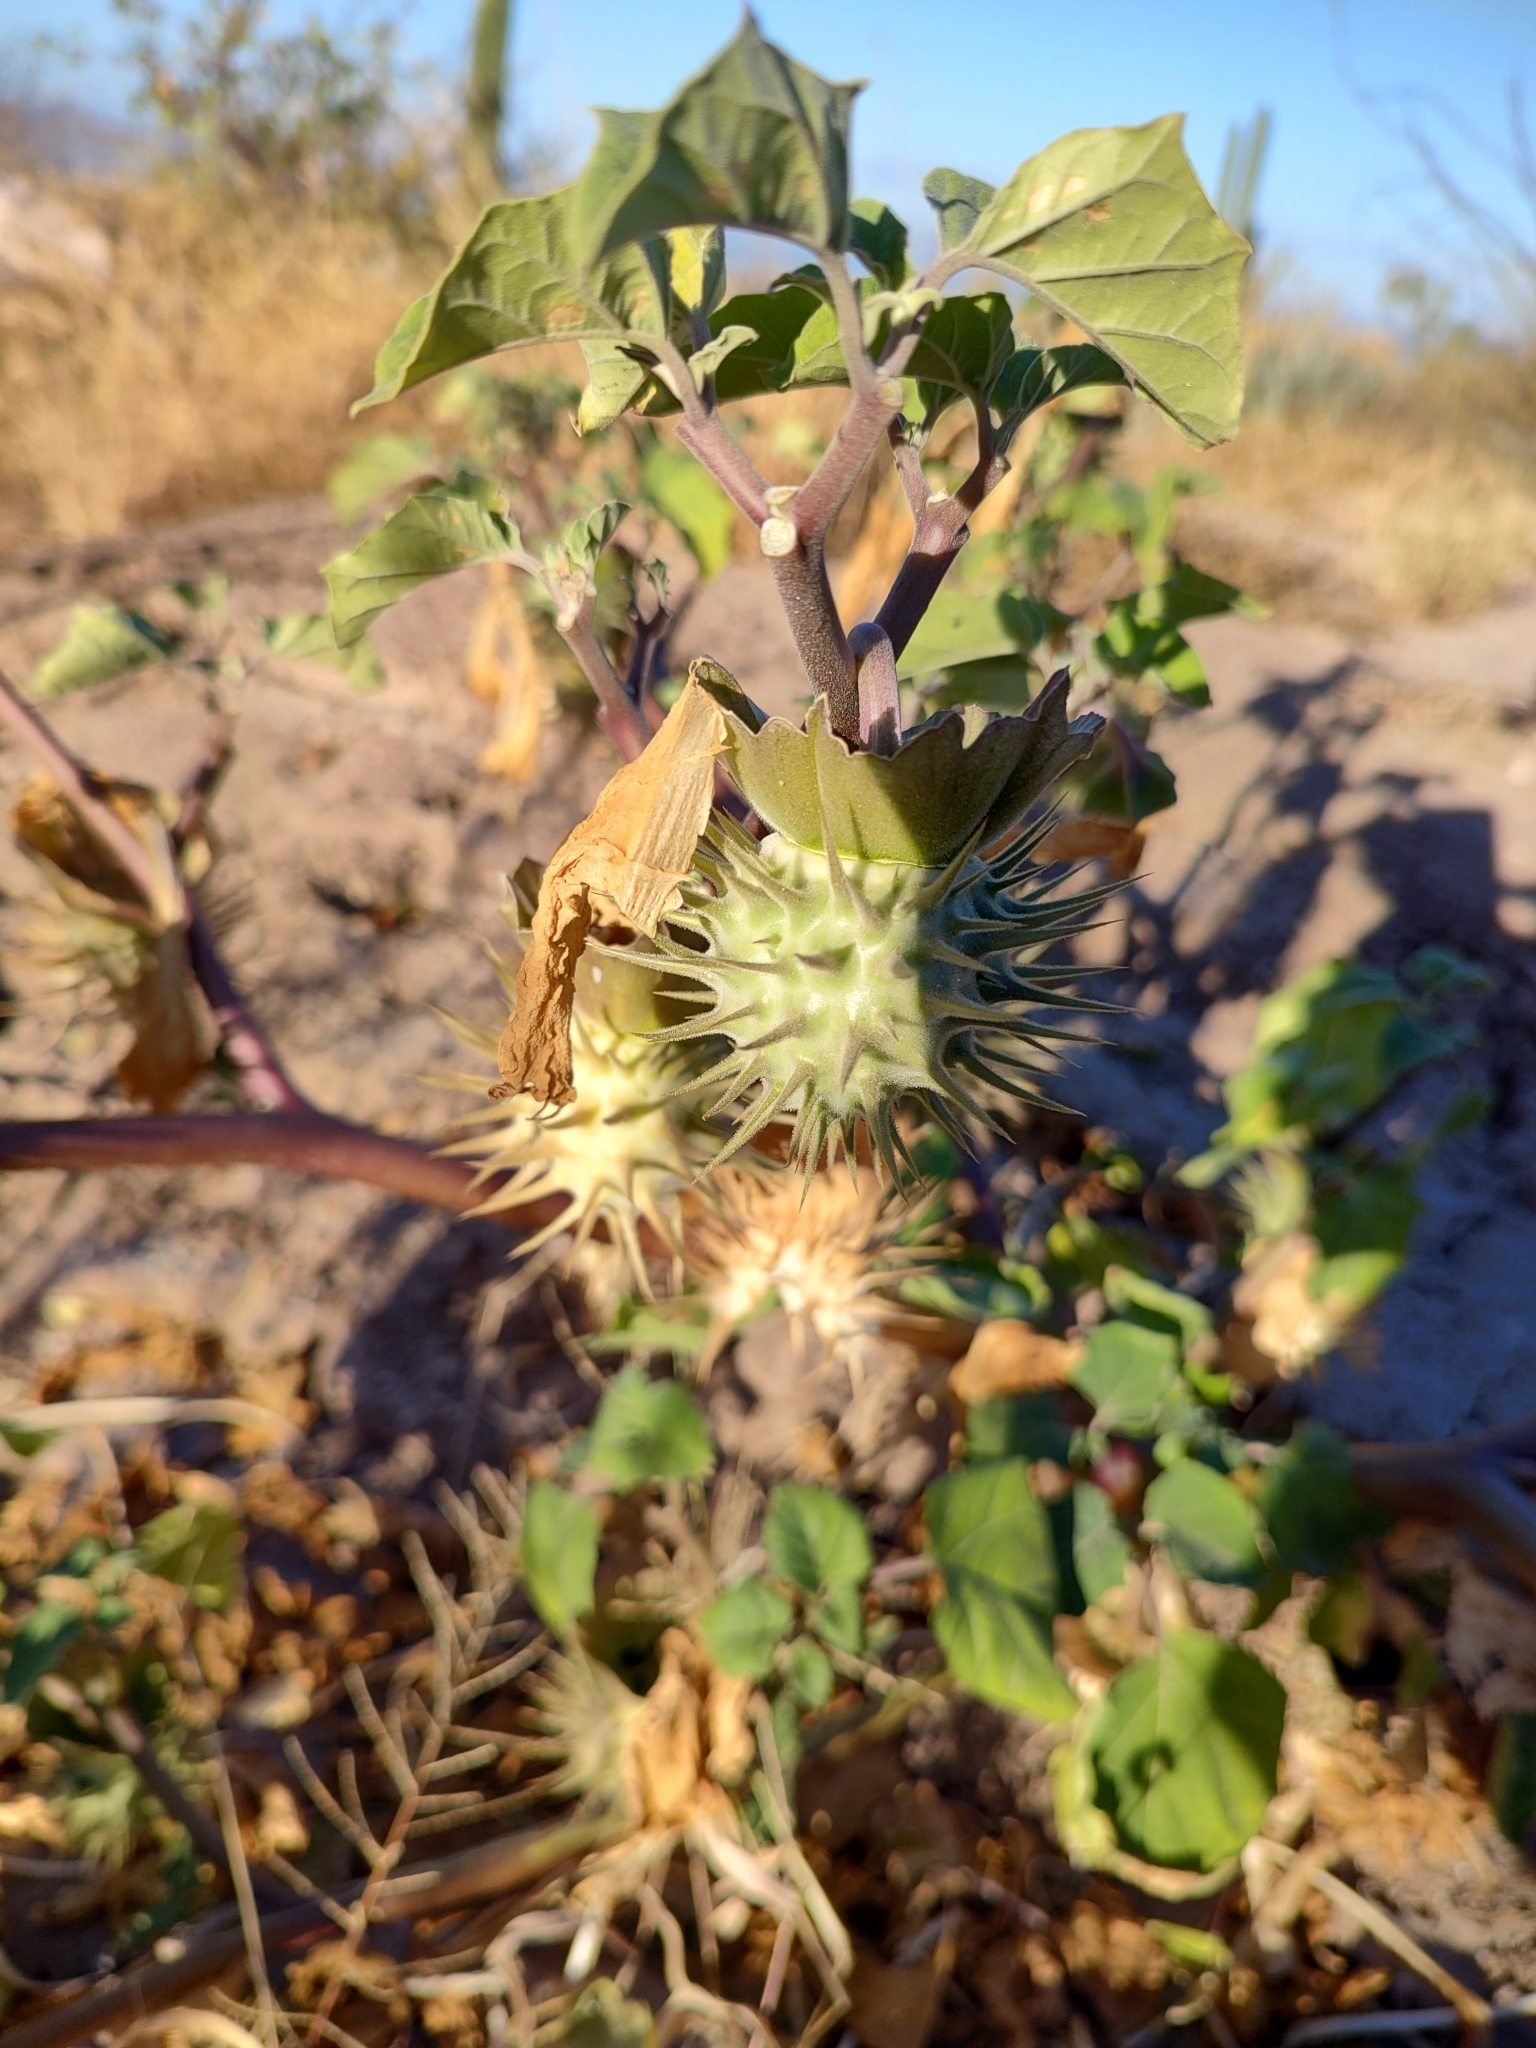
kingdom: Plantae
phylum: Tracheophyta
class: Magnoliopsida
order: Solanales
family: Solanaceae
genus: Datura
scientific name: Datura discolor
